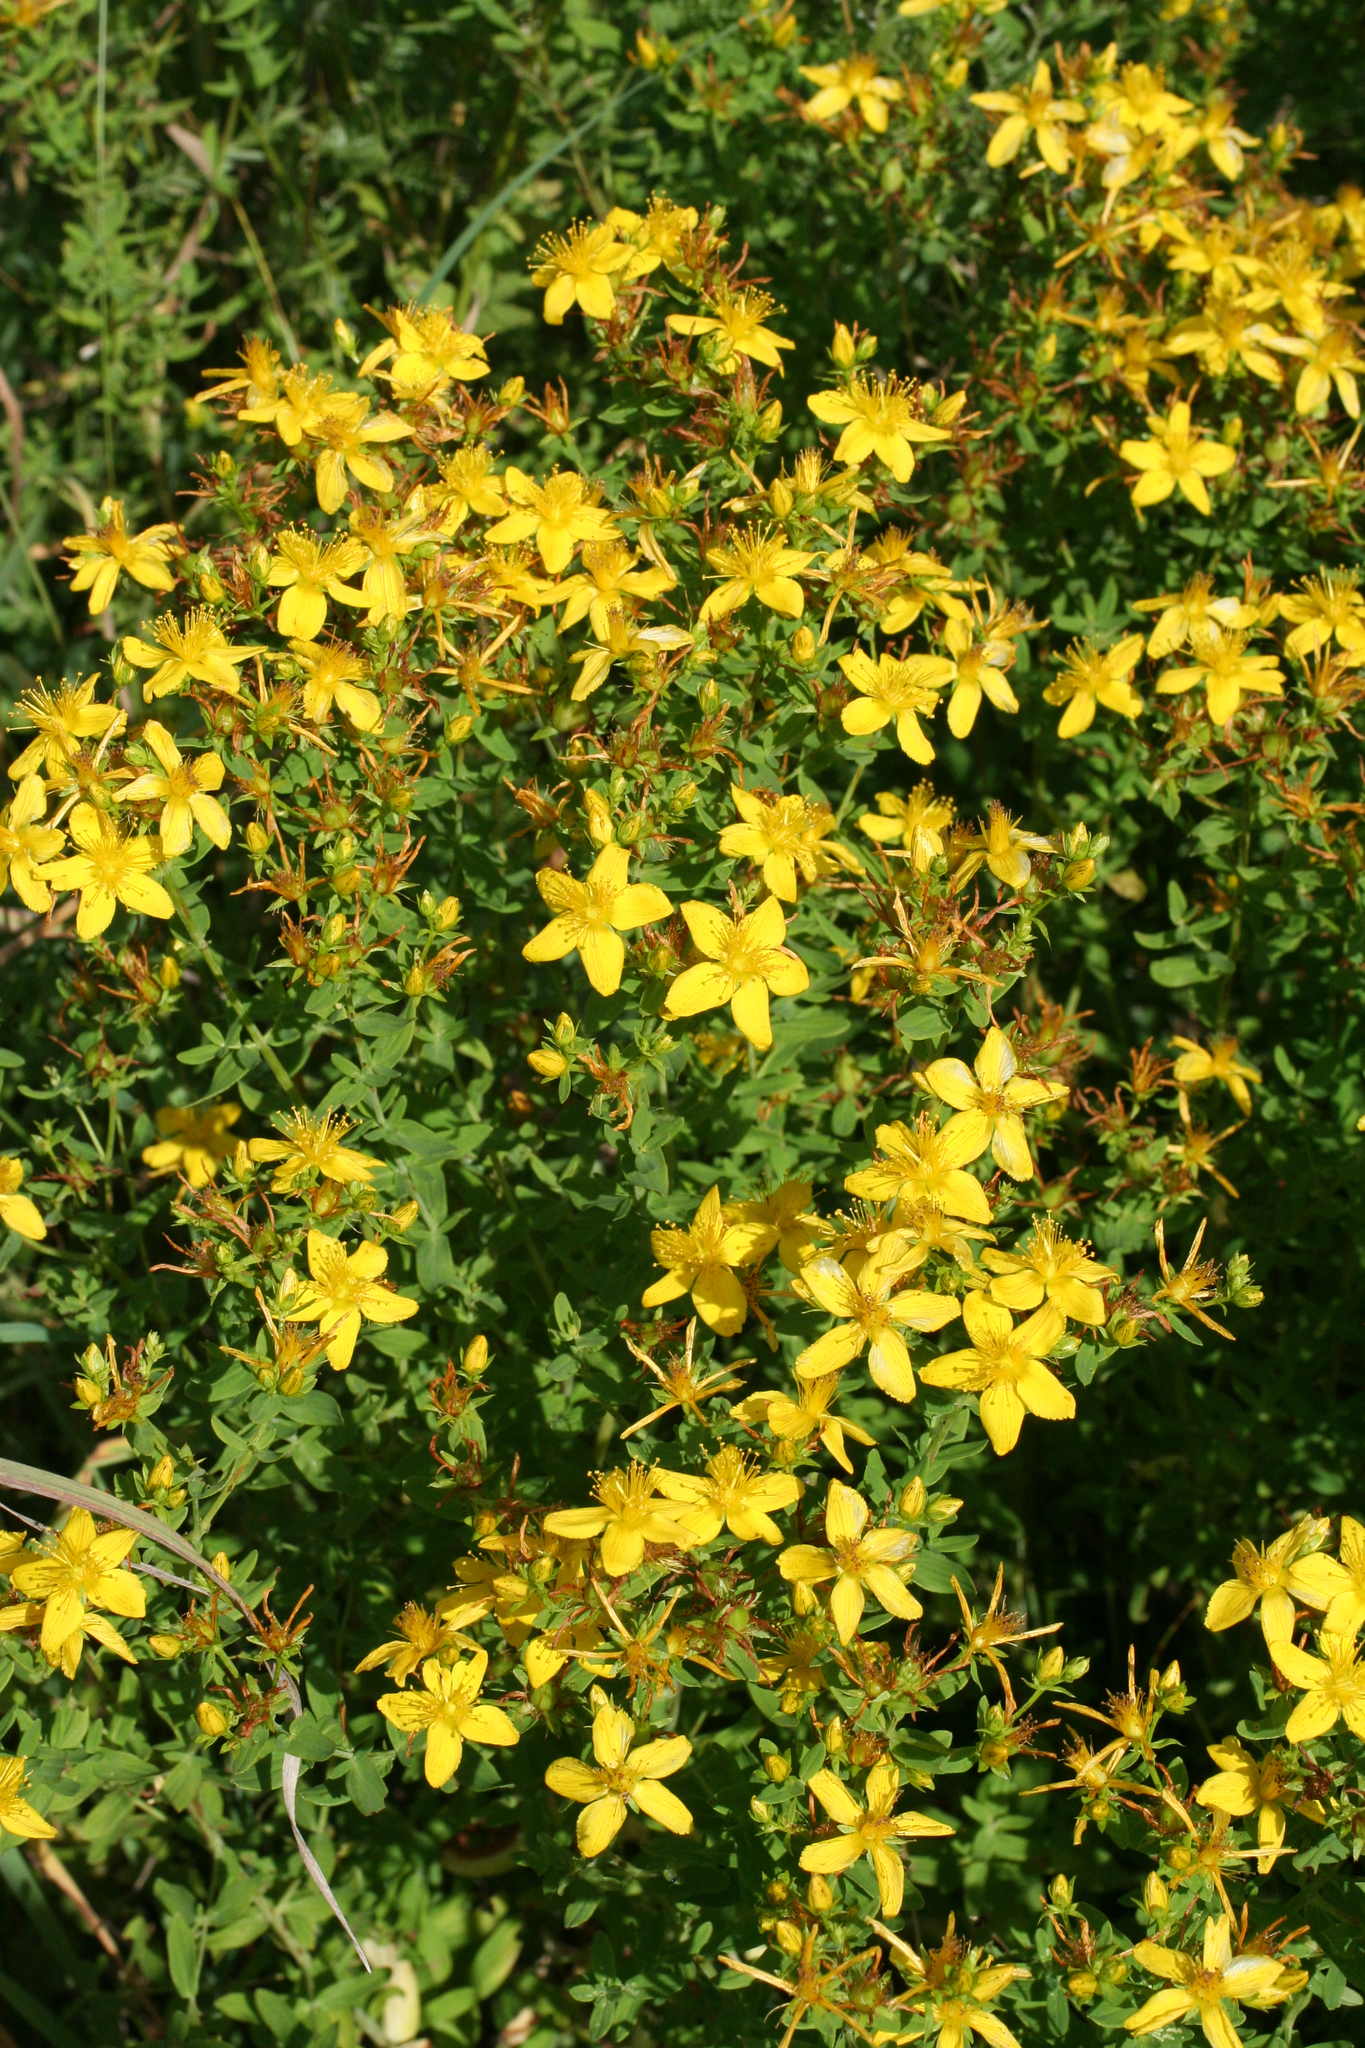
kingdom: Plantae
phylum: Tracheophyta
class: Magnoliopsida
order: Malpighiales
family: Hypericaceae
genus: Hypericum
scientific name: Hypericum perforatum
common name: Common st. johnswort
